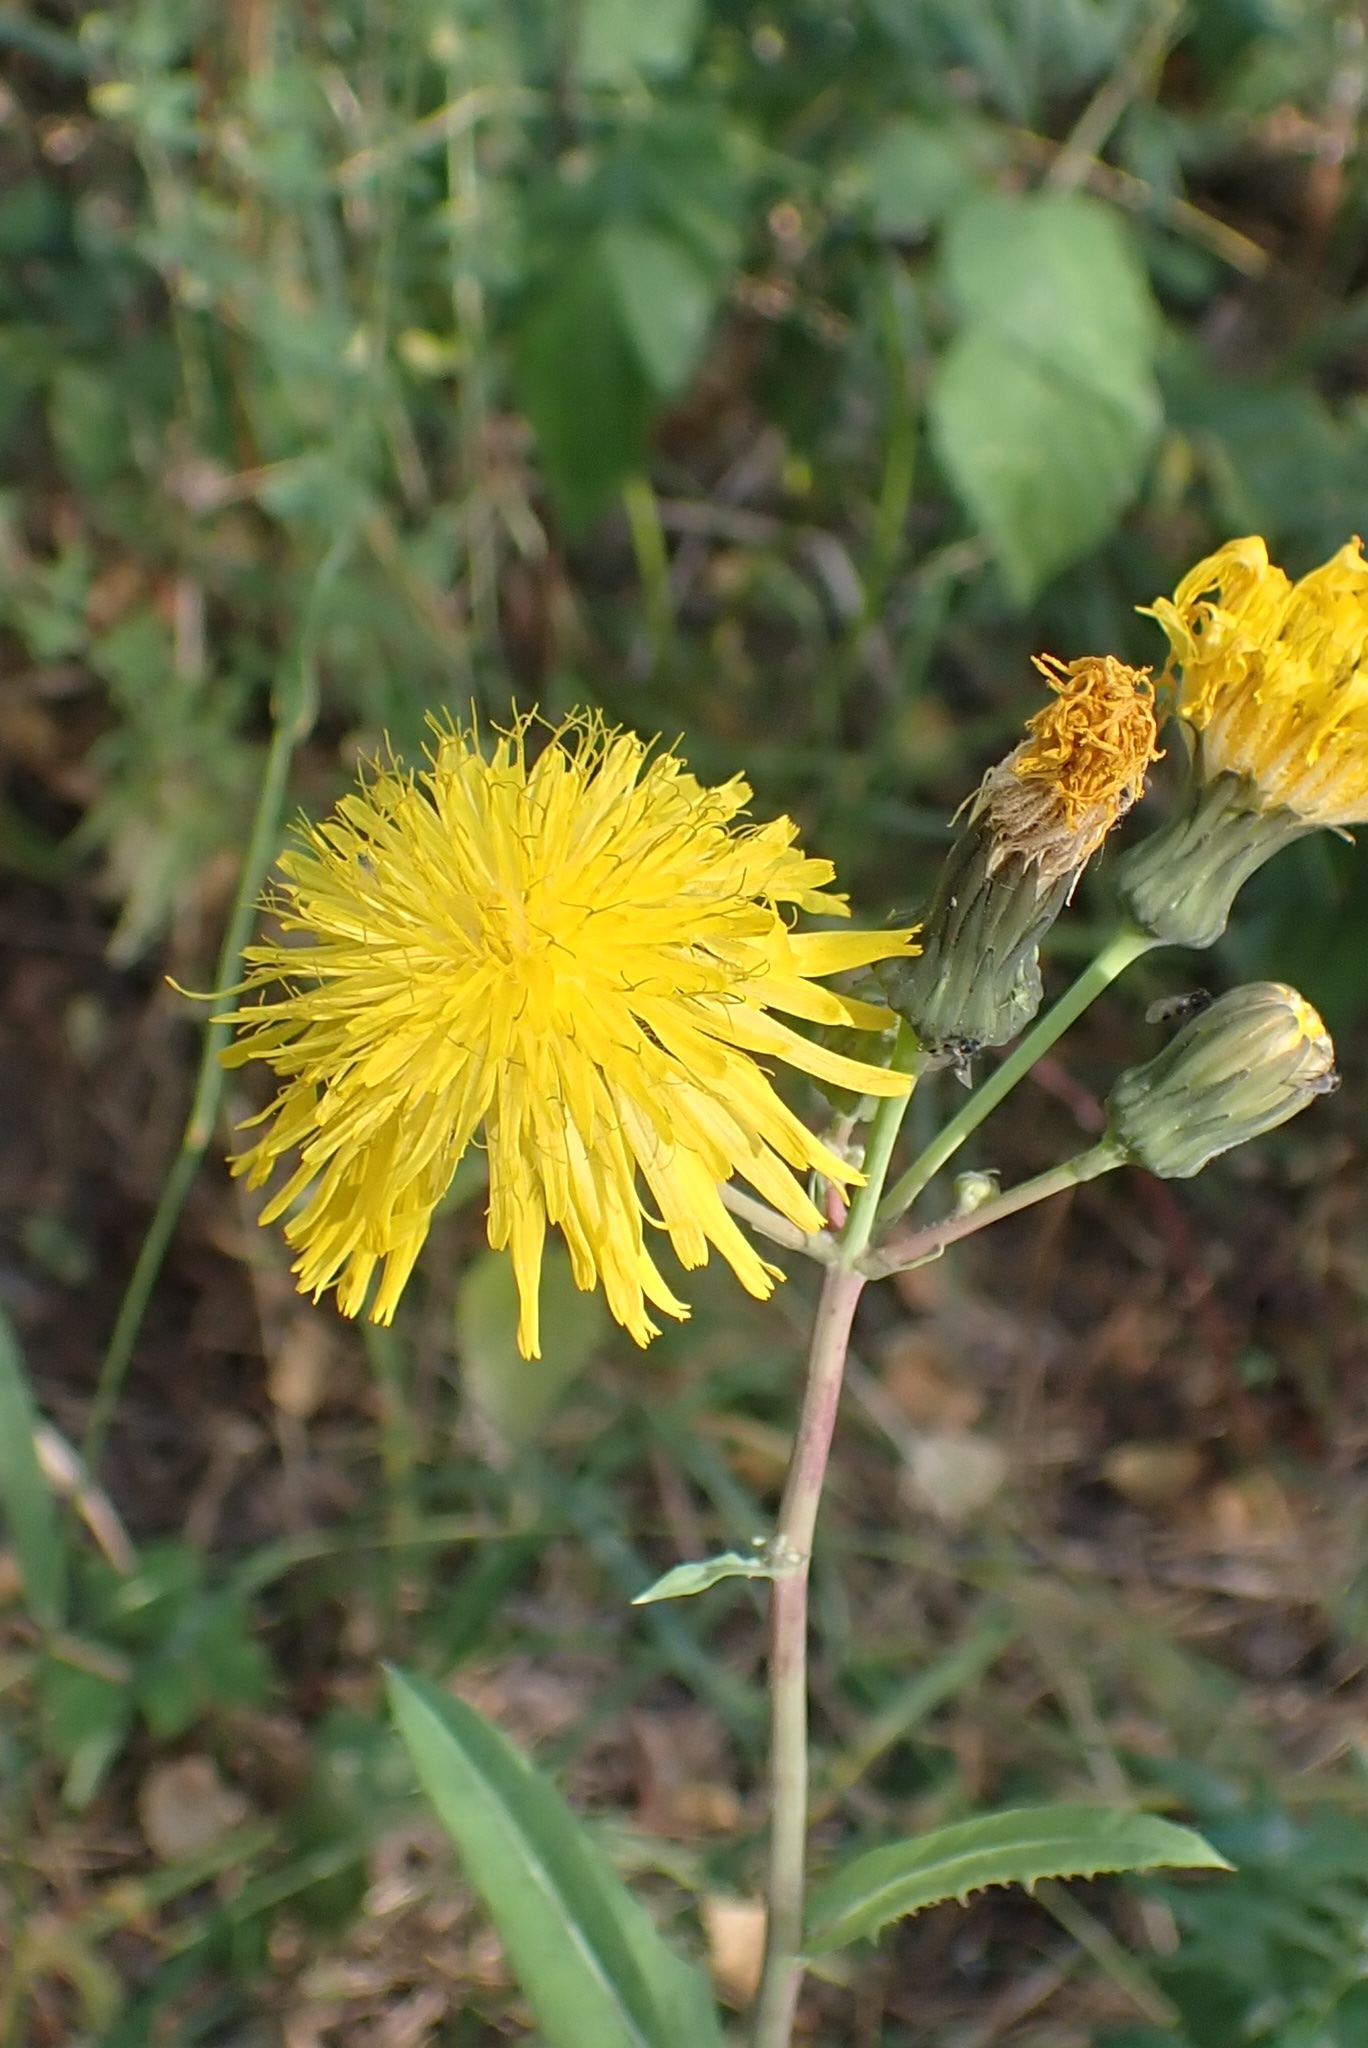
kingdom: Plantae
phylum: Tracheophyta
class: Magnoliopsida
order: Asterales
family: Asteraceae
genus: Sonchus
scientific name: Sonchus arvensis
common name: Perennial sow-thistle
